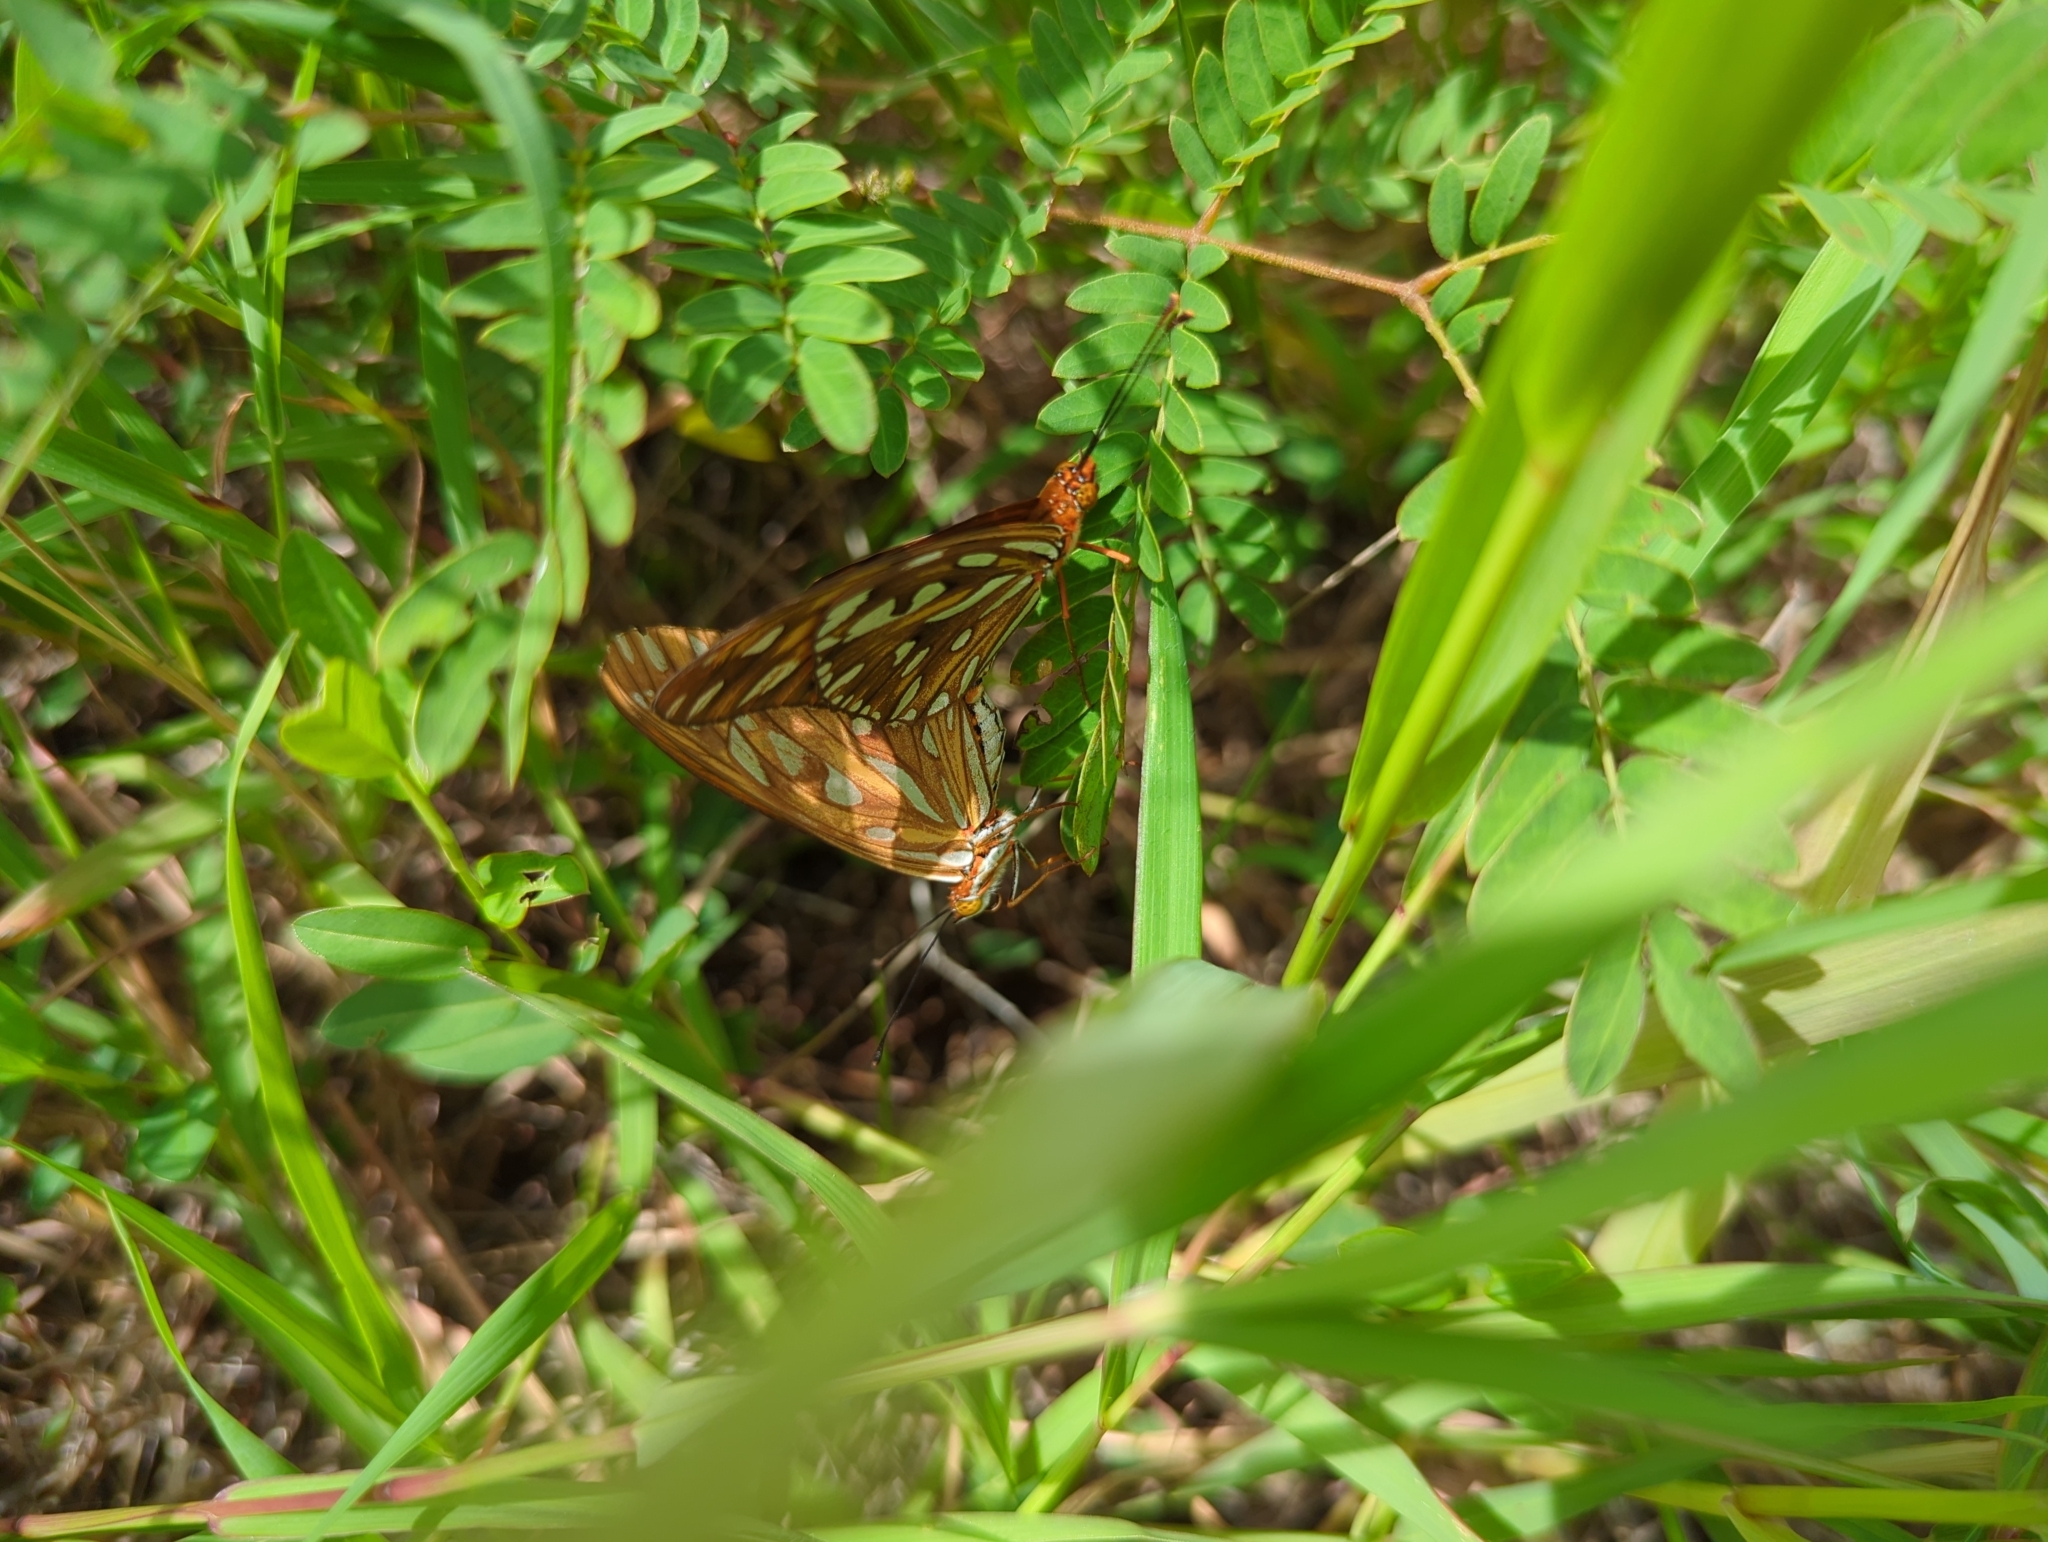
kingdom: Animalia
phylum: Arthropoda
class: Insecta
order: Lepidoptera
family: Nymphalidae
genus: Dione
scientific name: Dione vanillae
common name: Gulf fritillary
